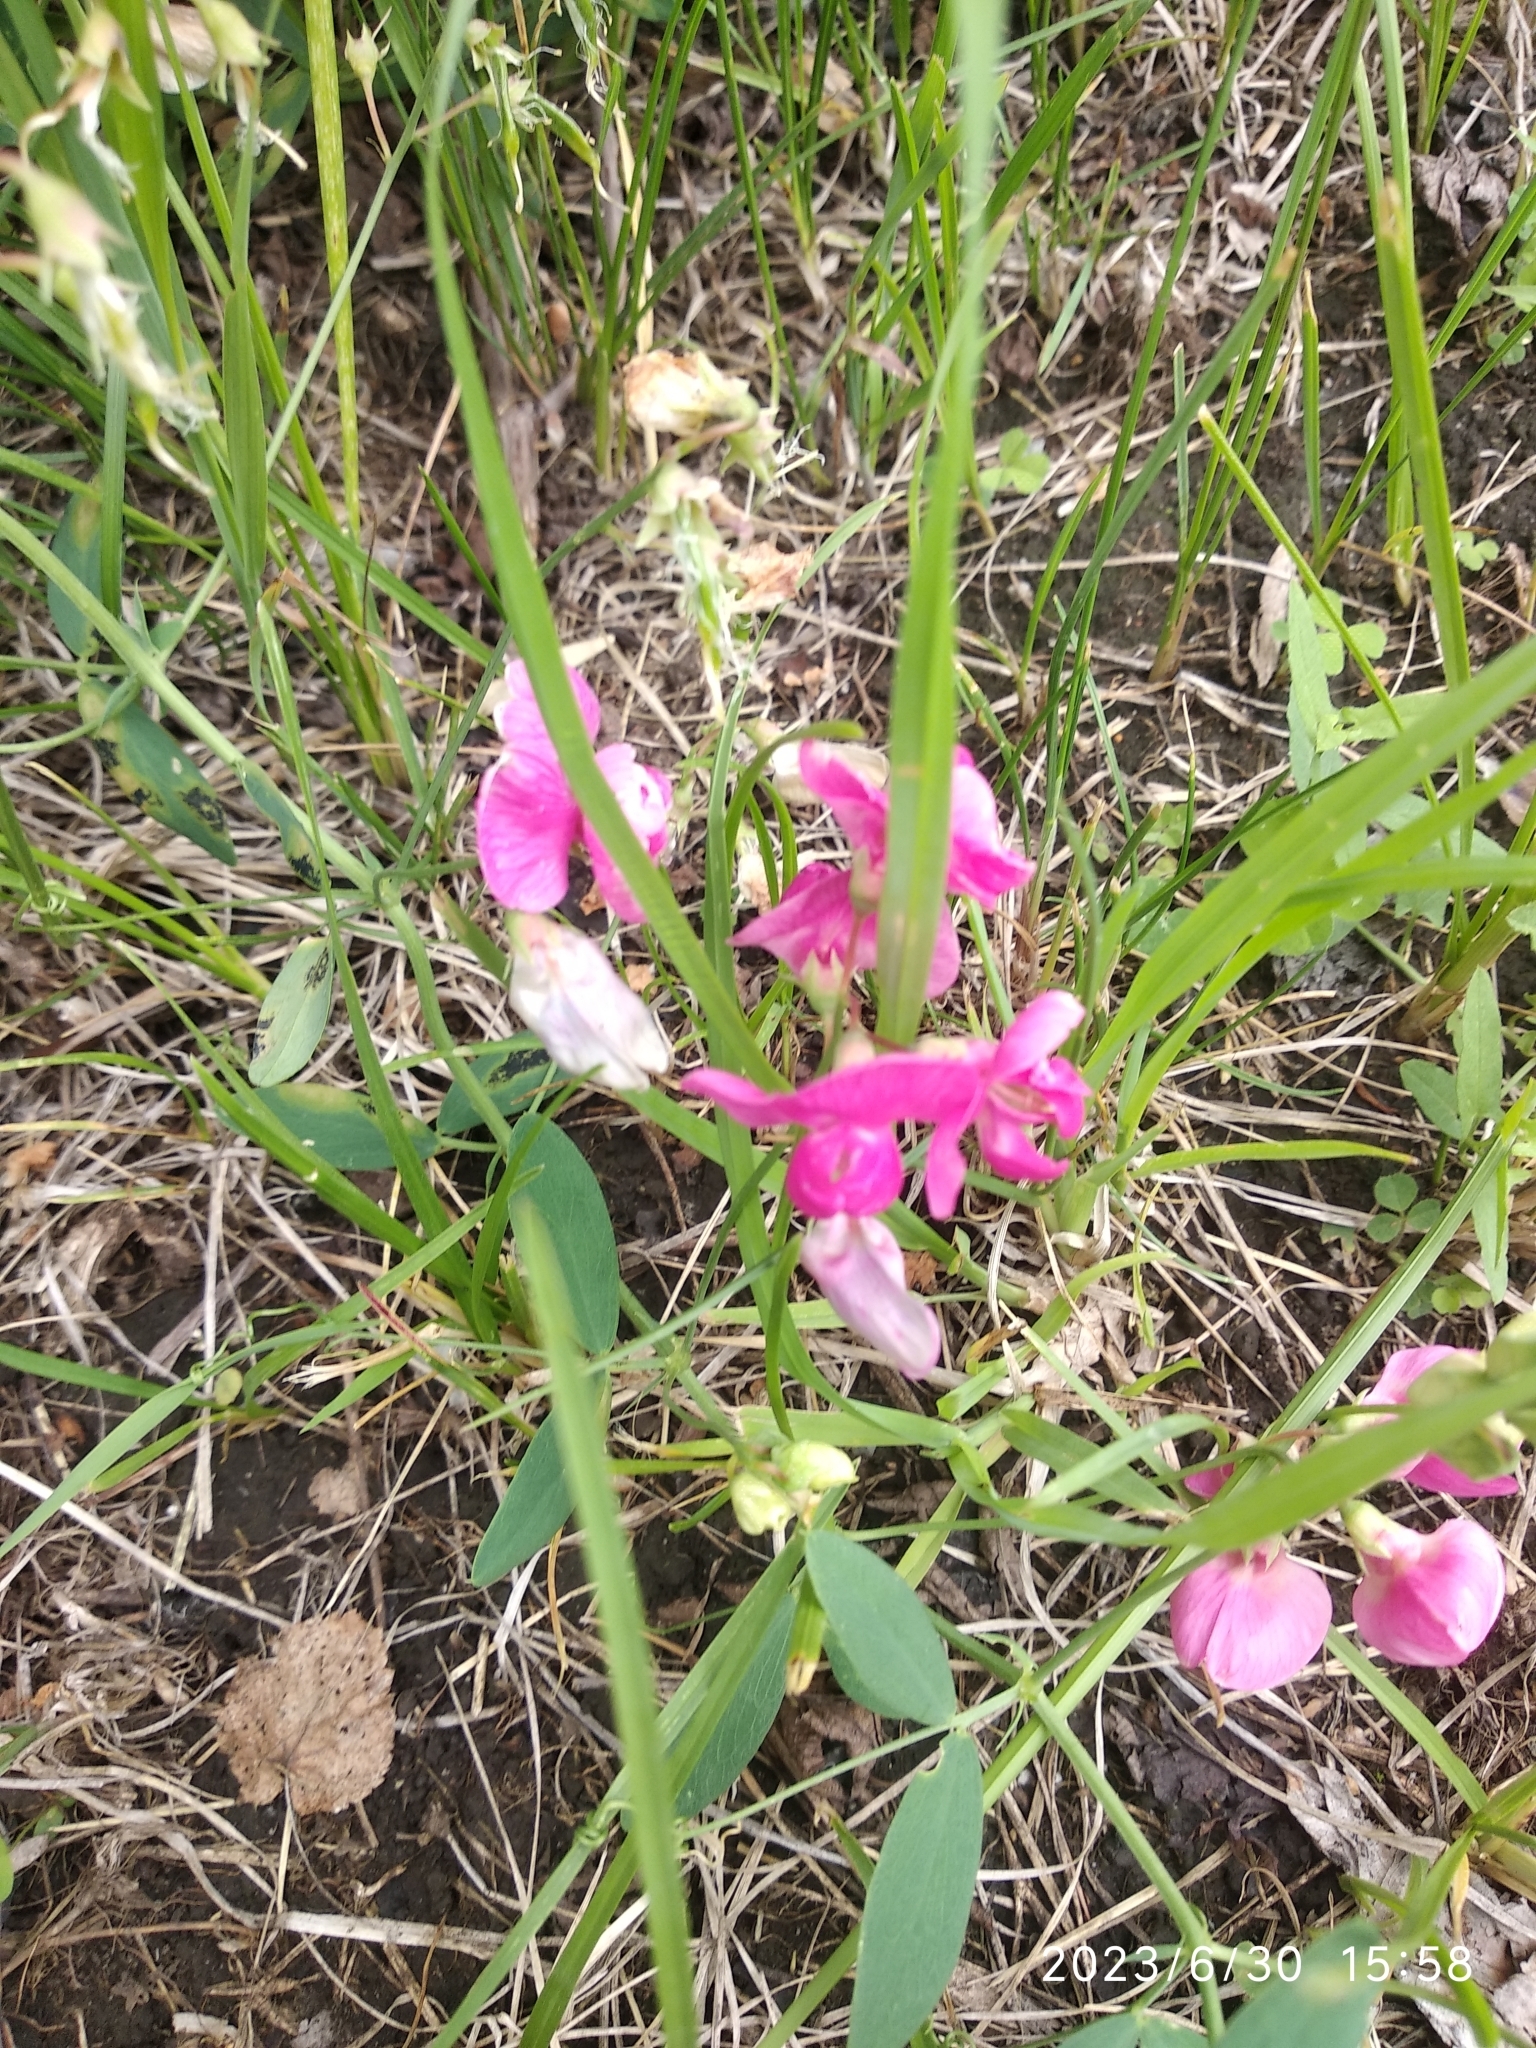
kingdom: Plantae
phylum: Tracheophyta
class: Magnoliopsida
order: Fabales
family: Fabaceae
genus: Lathyrus
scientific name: Lathyrus tuberosus
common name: Tuberous pea
